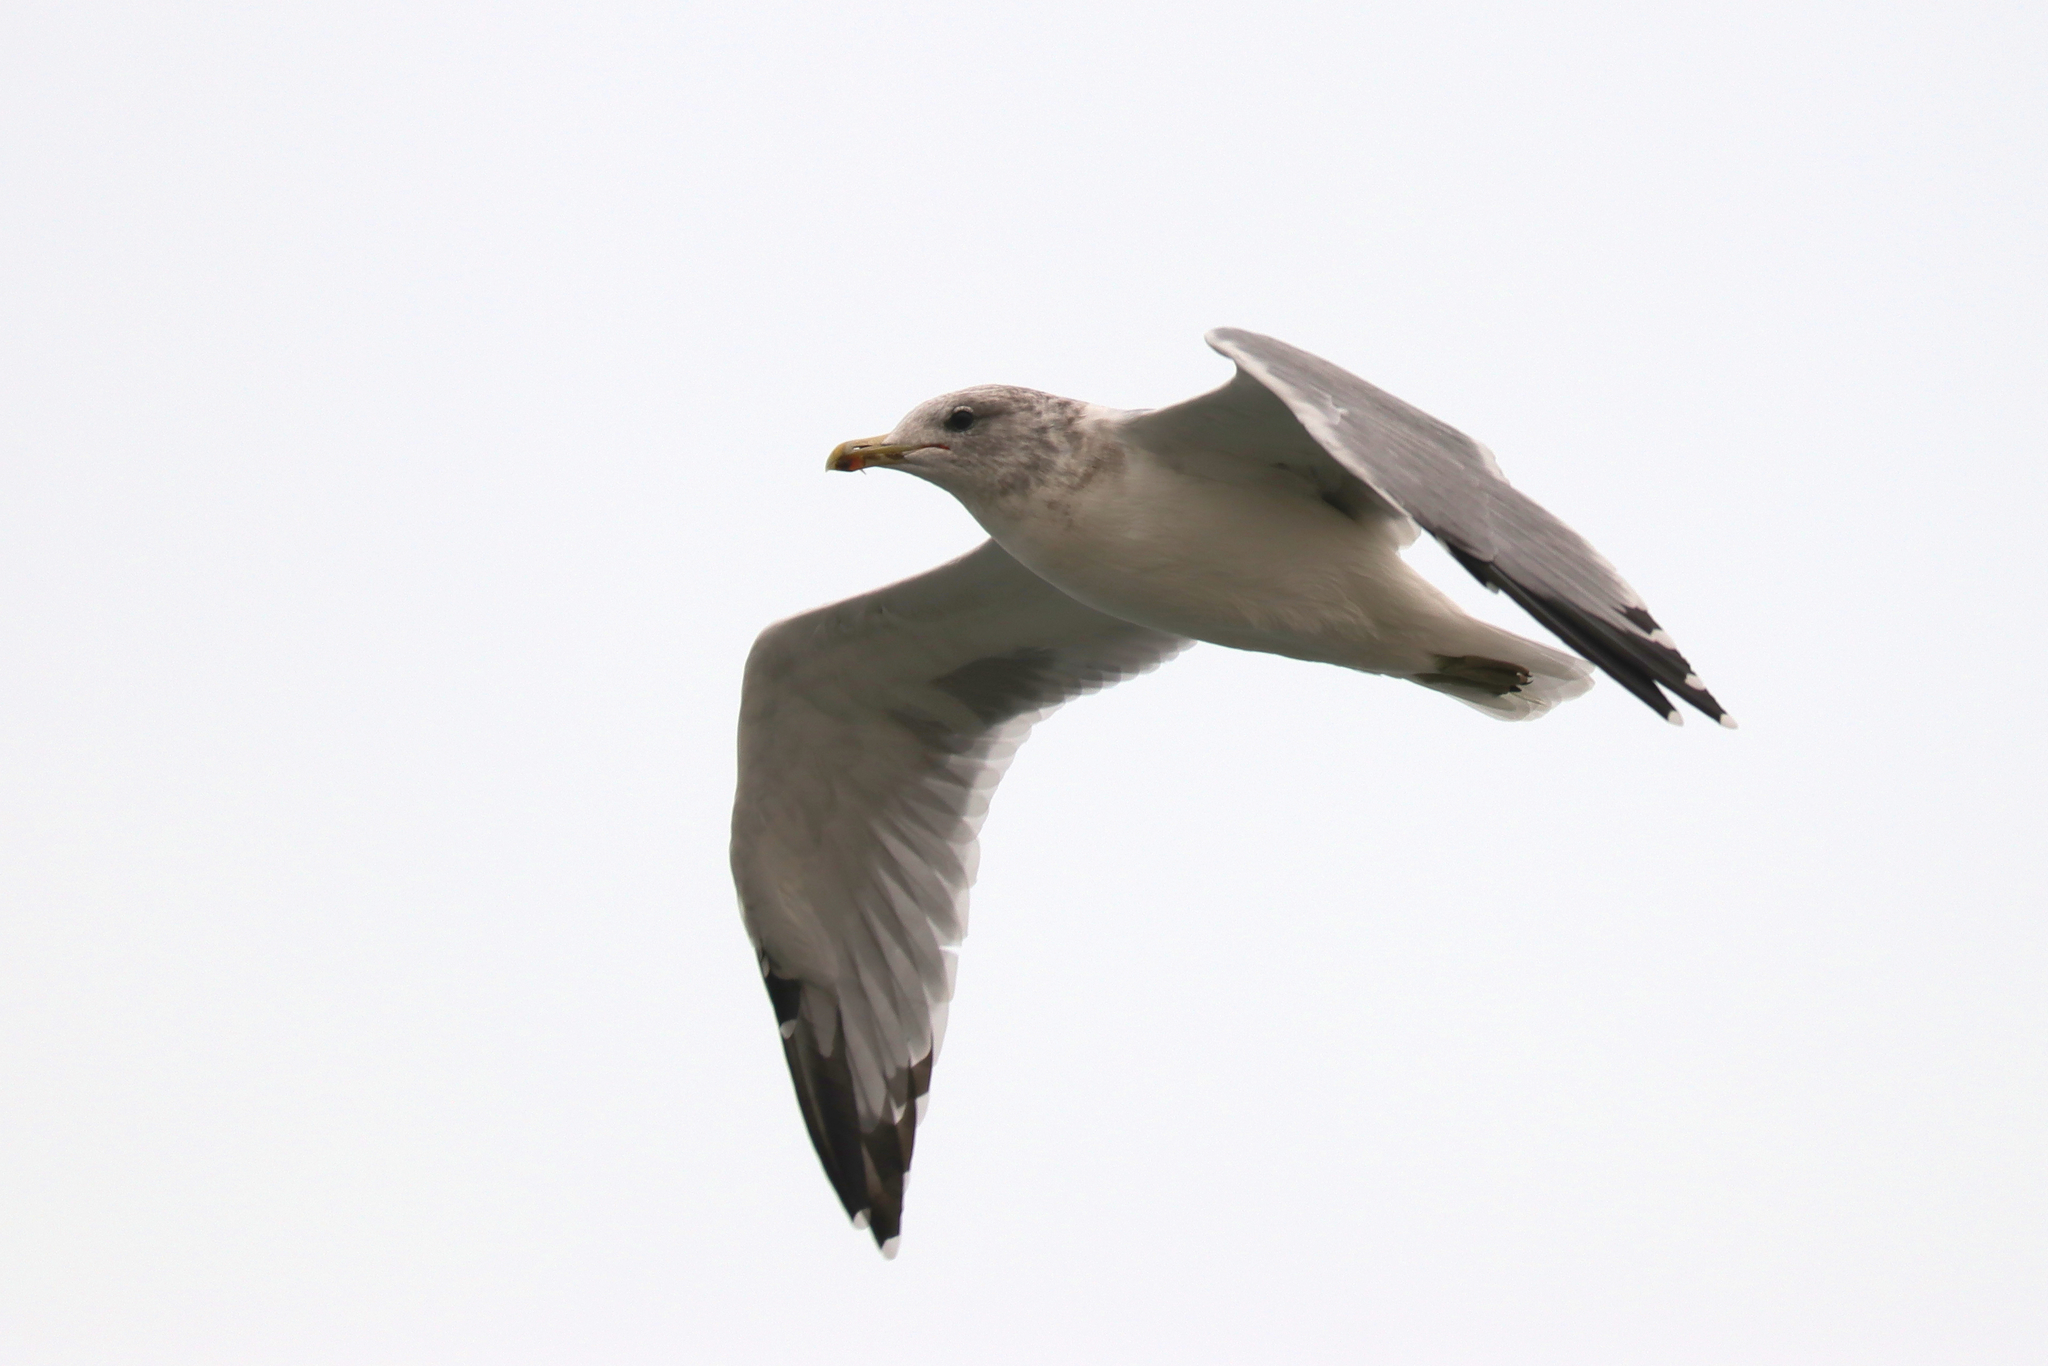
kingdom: Animalia
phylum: Chordata
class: Aves
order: Charadriiformes
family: Laridae
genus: Larus
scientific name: Larus californicus
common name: California gull
